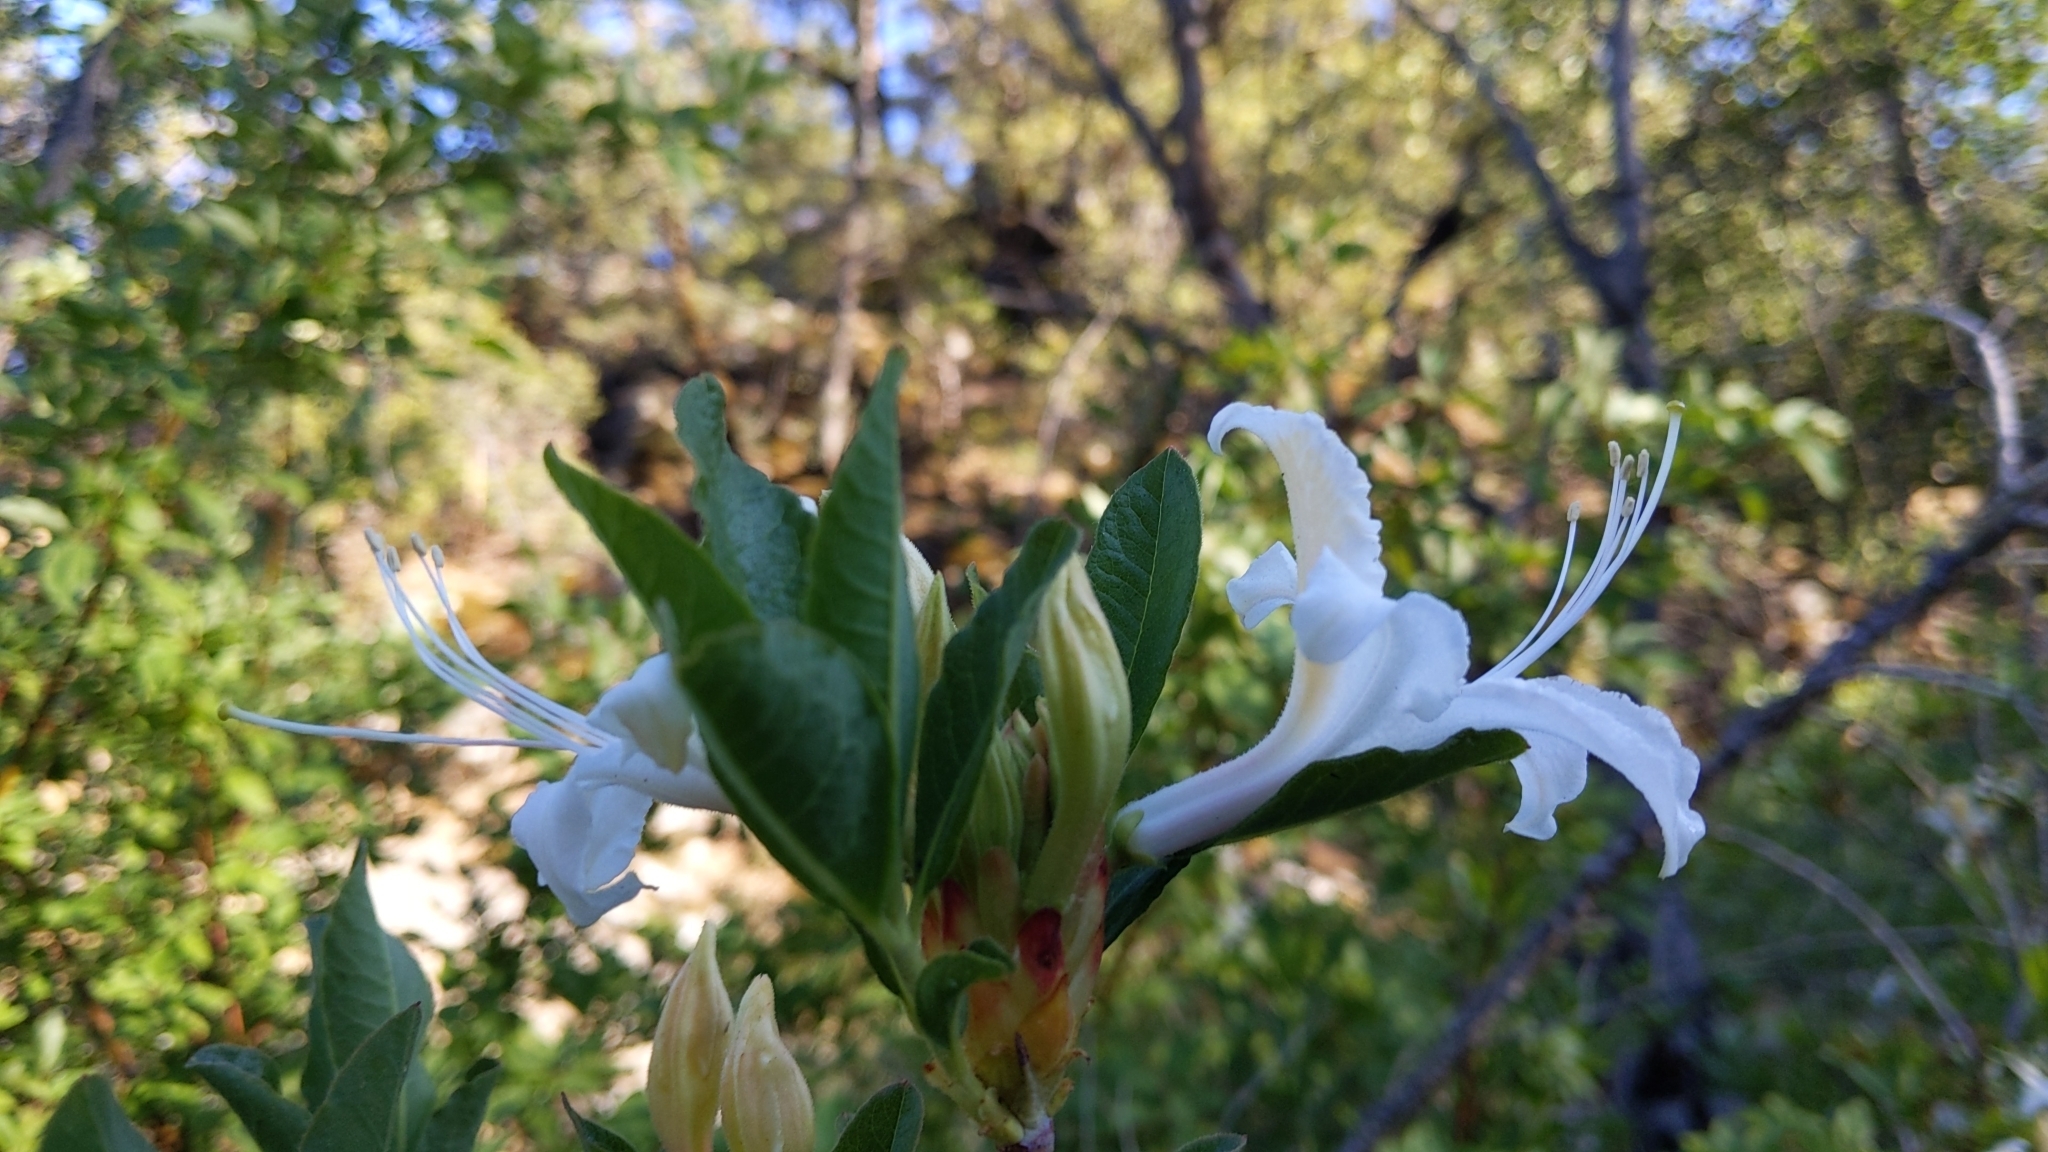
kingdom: Plantae
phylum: Tracheophyta
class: Magnoliopsida
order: Ericales
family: Ericaceae
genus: Rhododendron
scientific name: Rhododendron occidentale
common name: Western azalea
